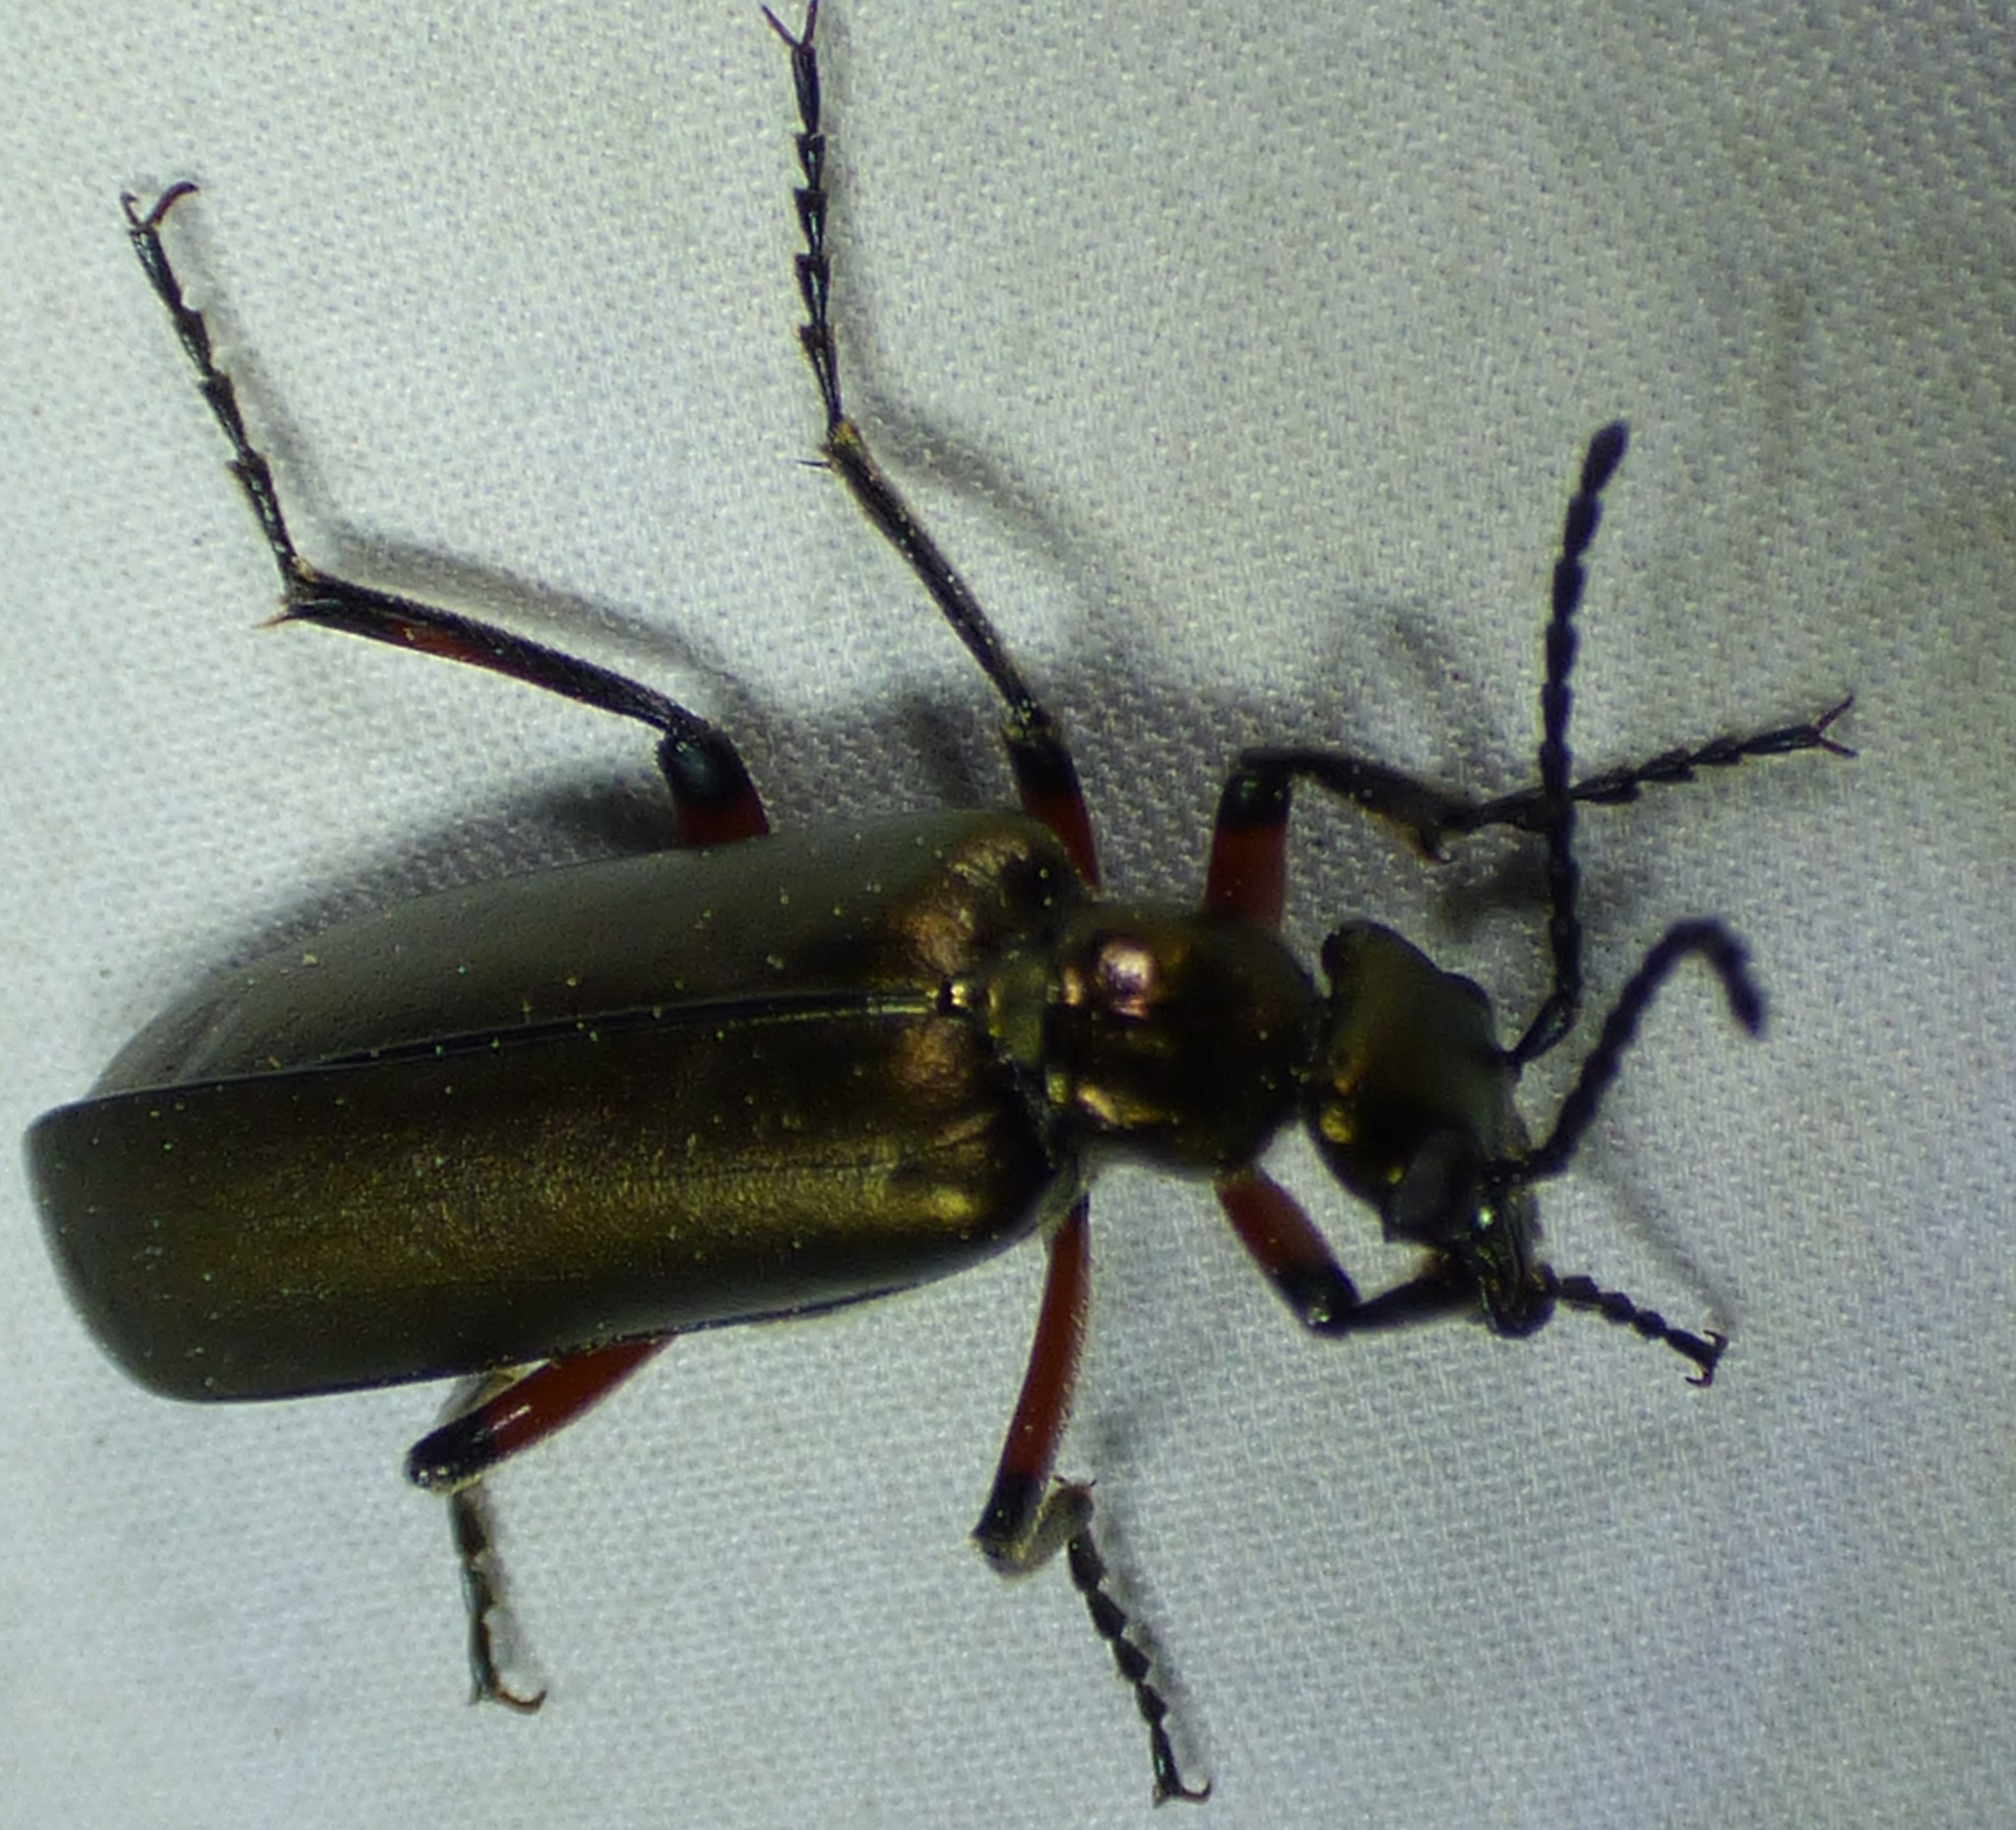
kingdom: Animalia
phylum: Arthropoda
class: Insecta
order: Coleoptera
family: Meloidae
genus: Lytta
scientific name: Lytta polita
